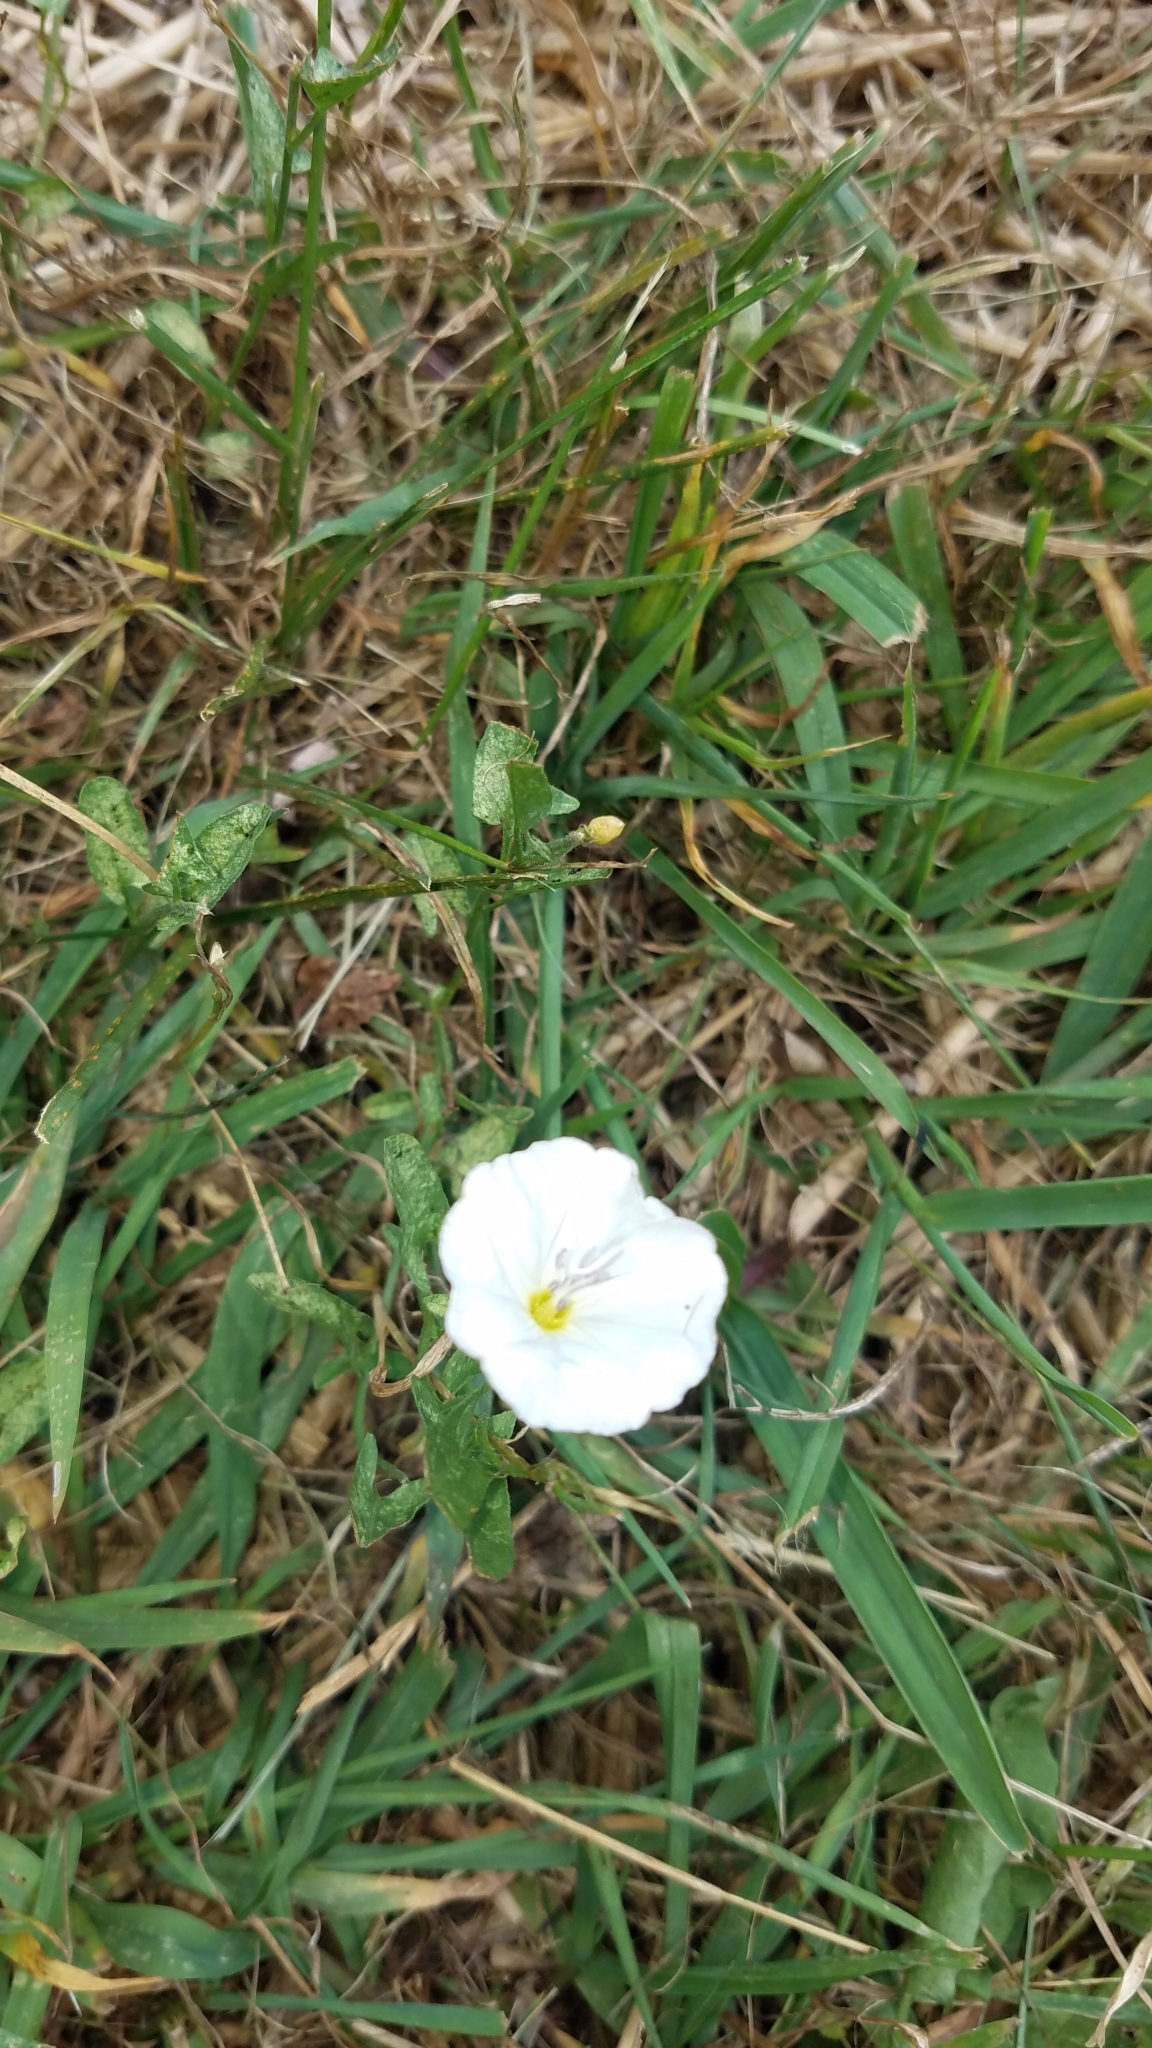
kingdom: Plantae
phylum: Tracheophyta
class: Magnoliopsida
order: Solanales
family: Convolvulaceae
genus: Convolvulus
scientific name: Convolvulus arvensis
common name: Field bindweed
